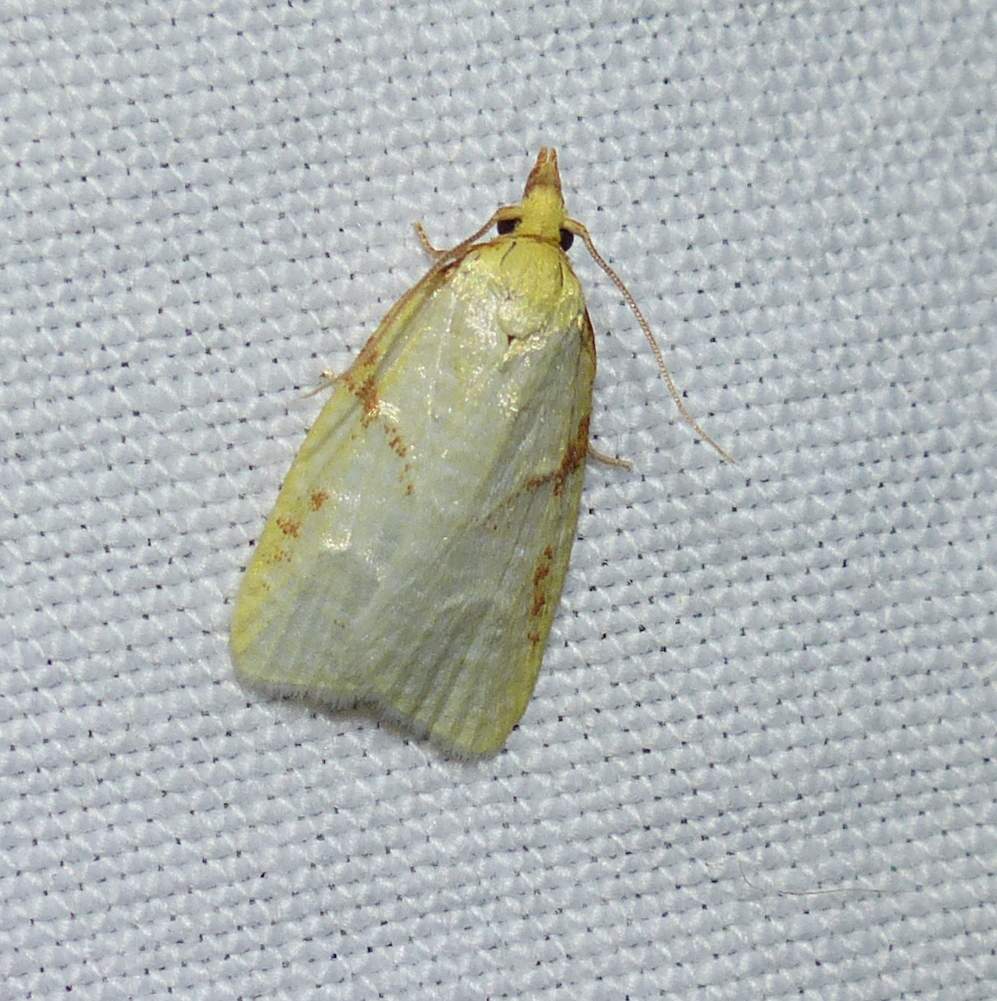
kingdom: Animalia
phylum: Arthropoda
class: Insecta
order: Lepidoptera
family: Tortricidae
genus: Cenopis
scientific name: Cenopis pettitana
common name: Maple-basswood leafroller moth
